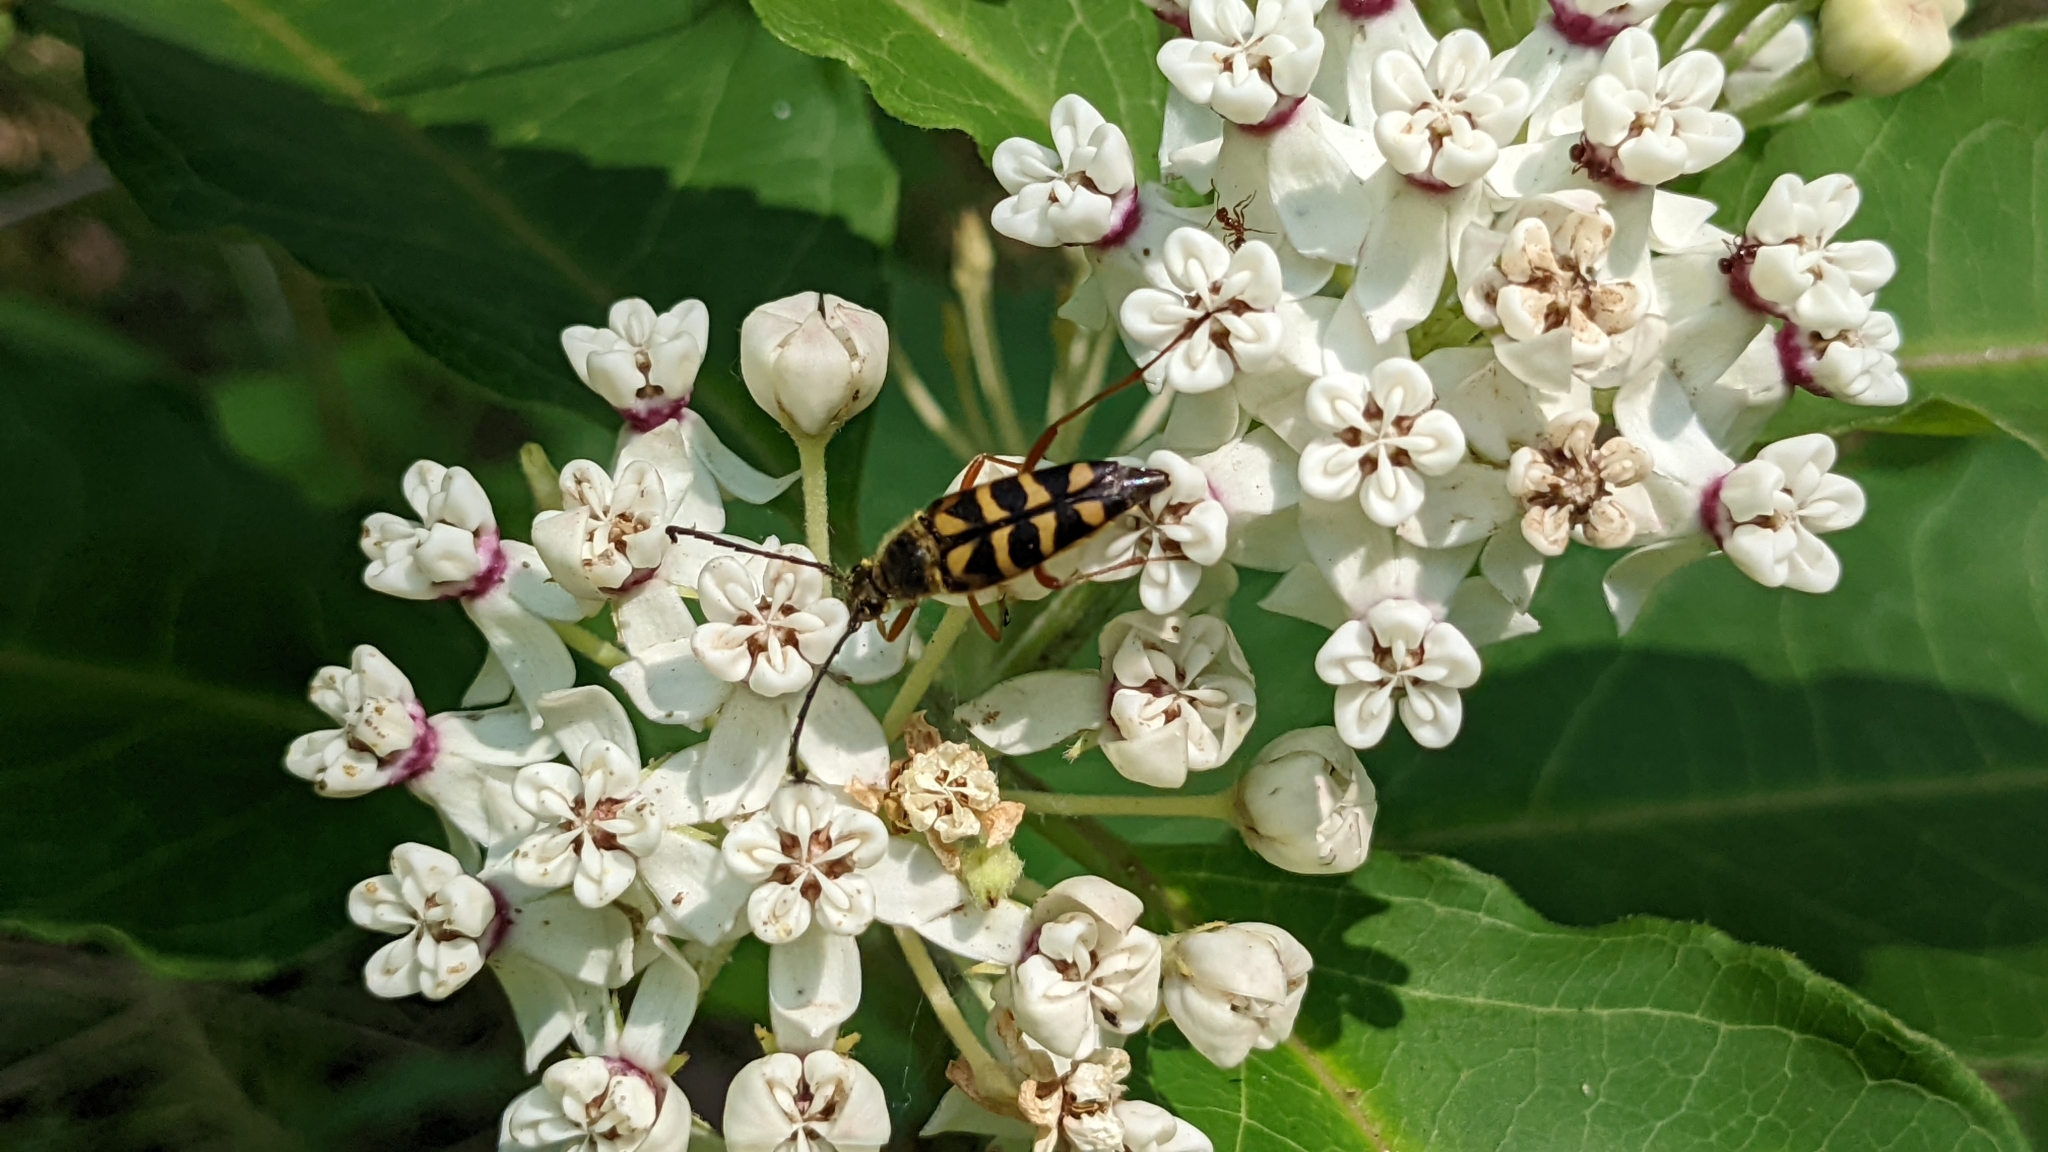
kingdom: Animalia
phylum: Arthropoda
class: Insecta
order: Coleoptera
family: Cerambycidae
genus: Typocerus
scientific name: Typocerus zebra
